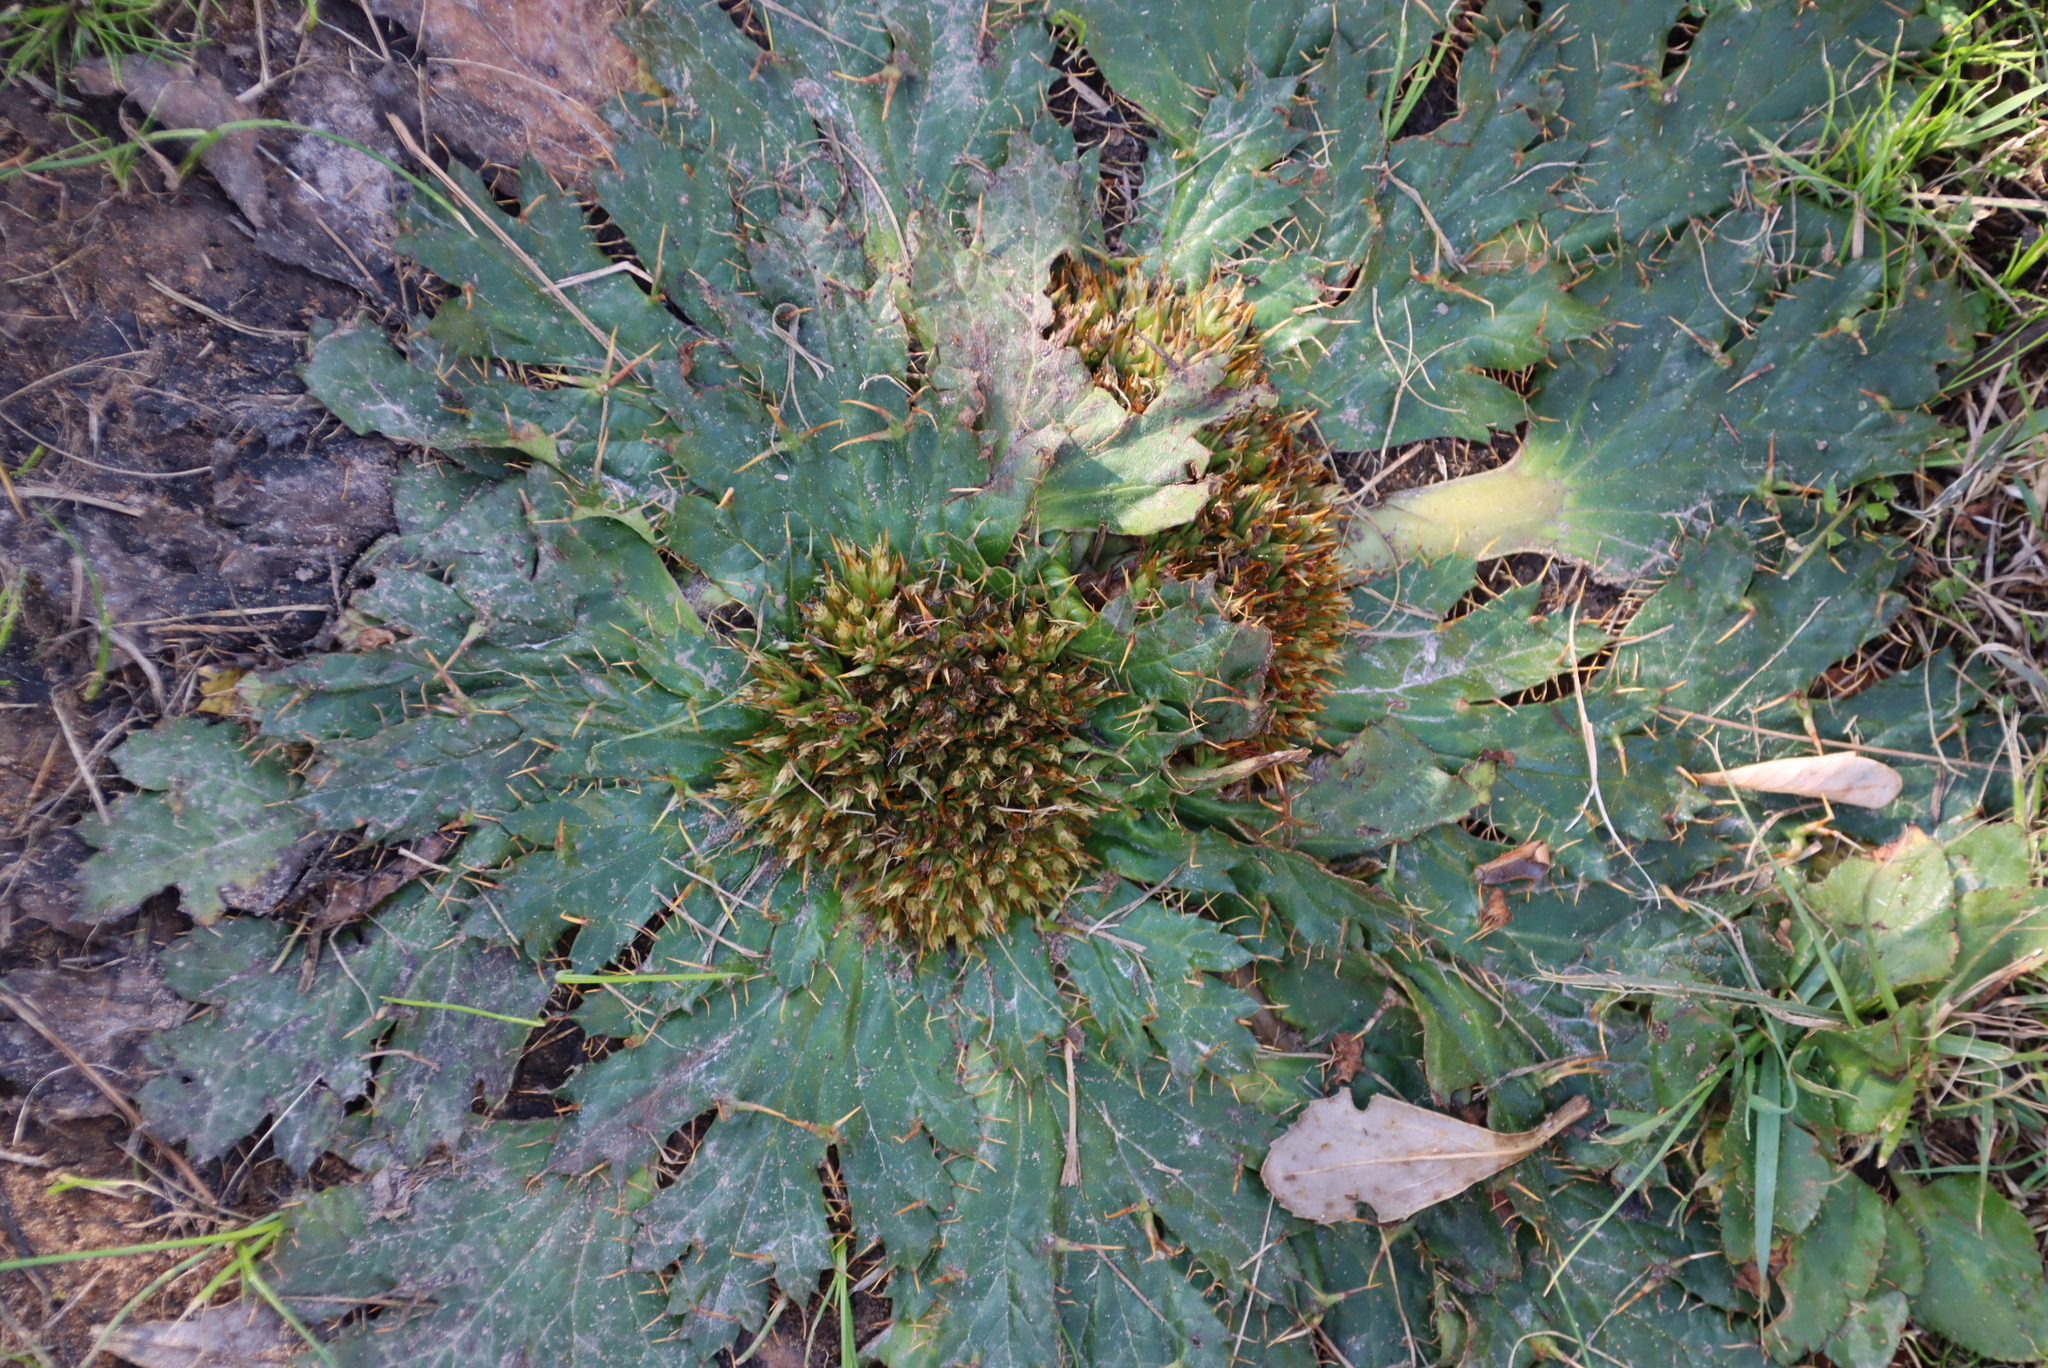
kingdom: Plantae
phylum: Tracheophyta
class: Magnoliopsida
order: Apiales
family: Apiaceae
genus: Arctopus
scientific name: Arctopus echinatus
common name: Platdoring
